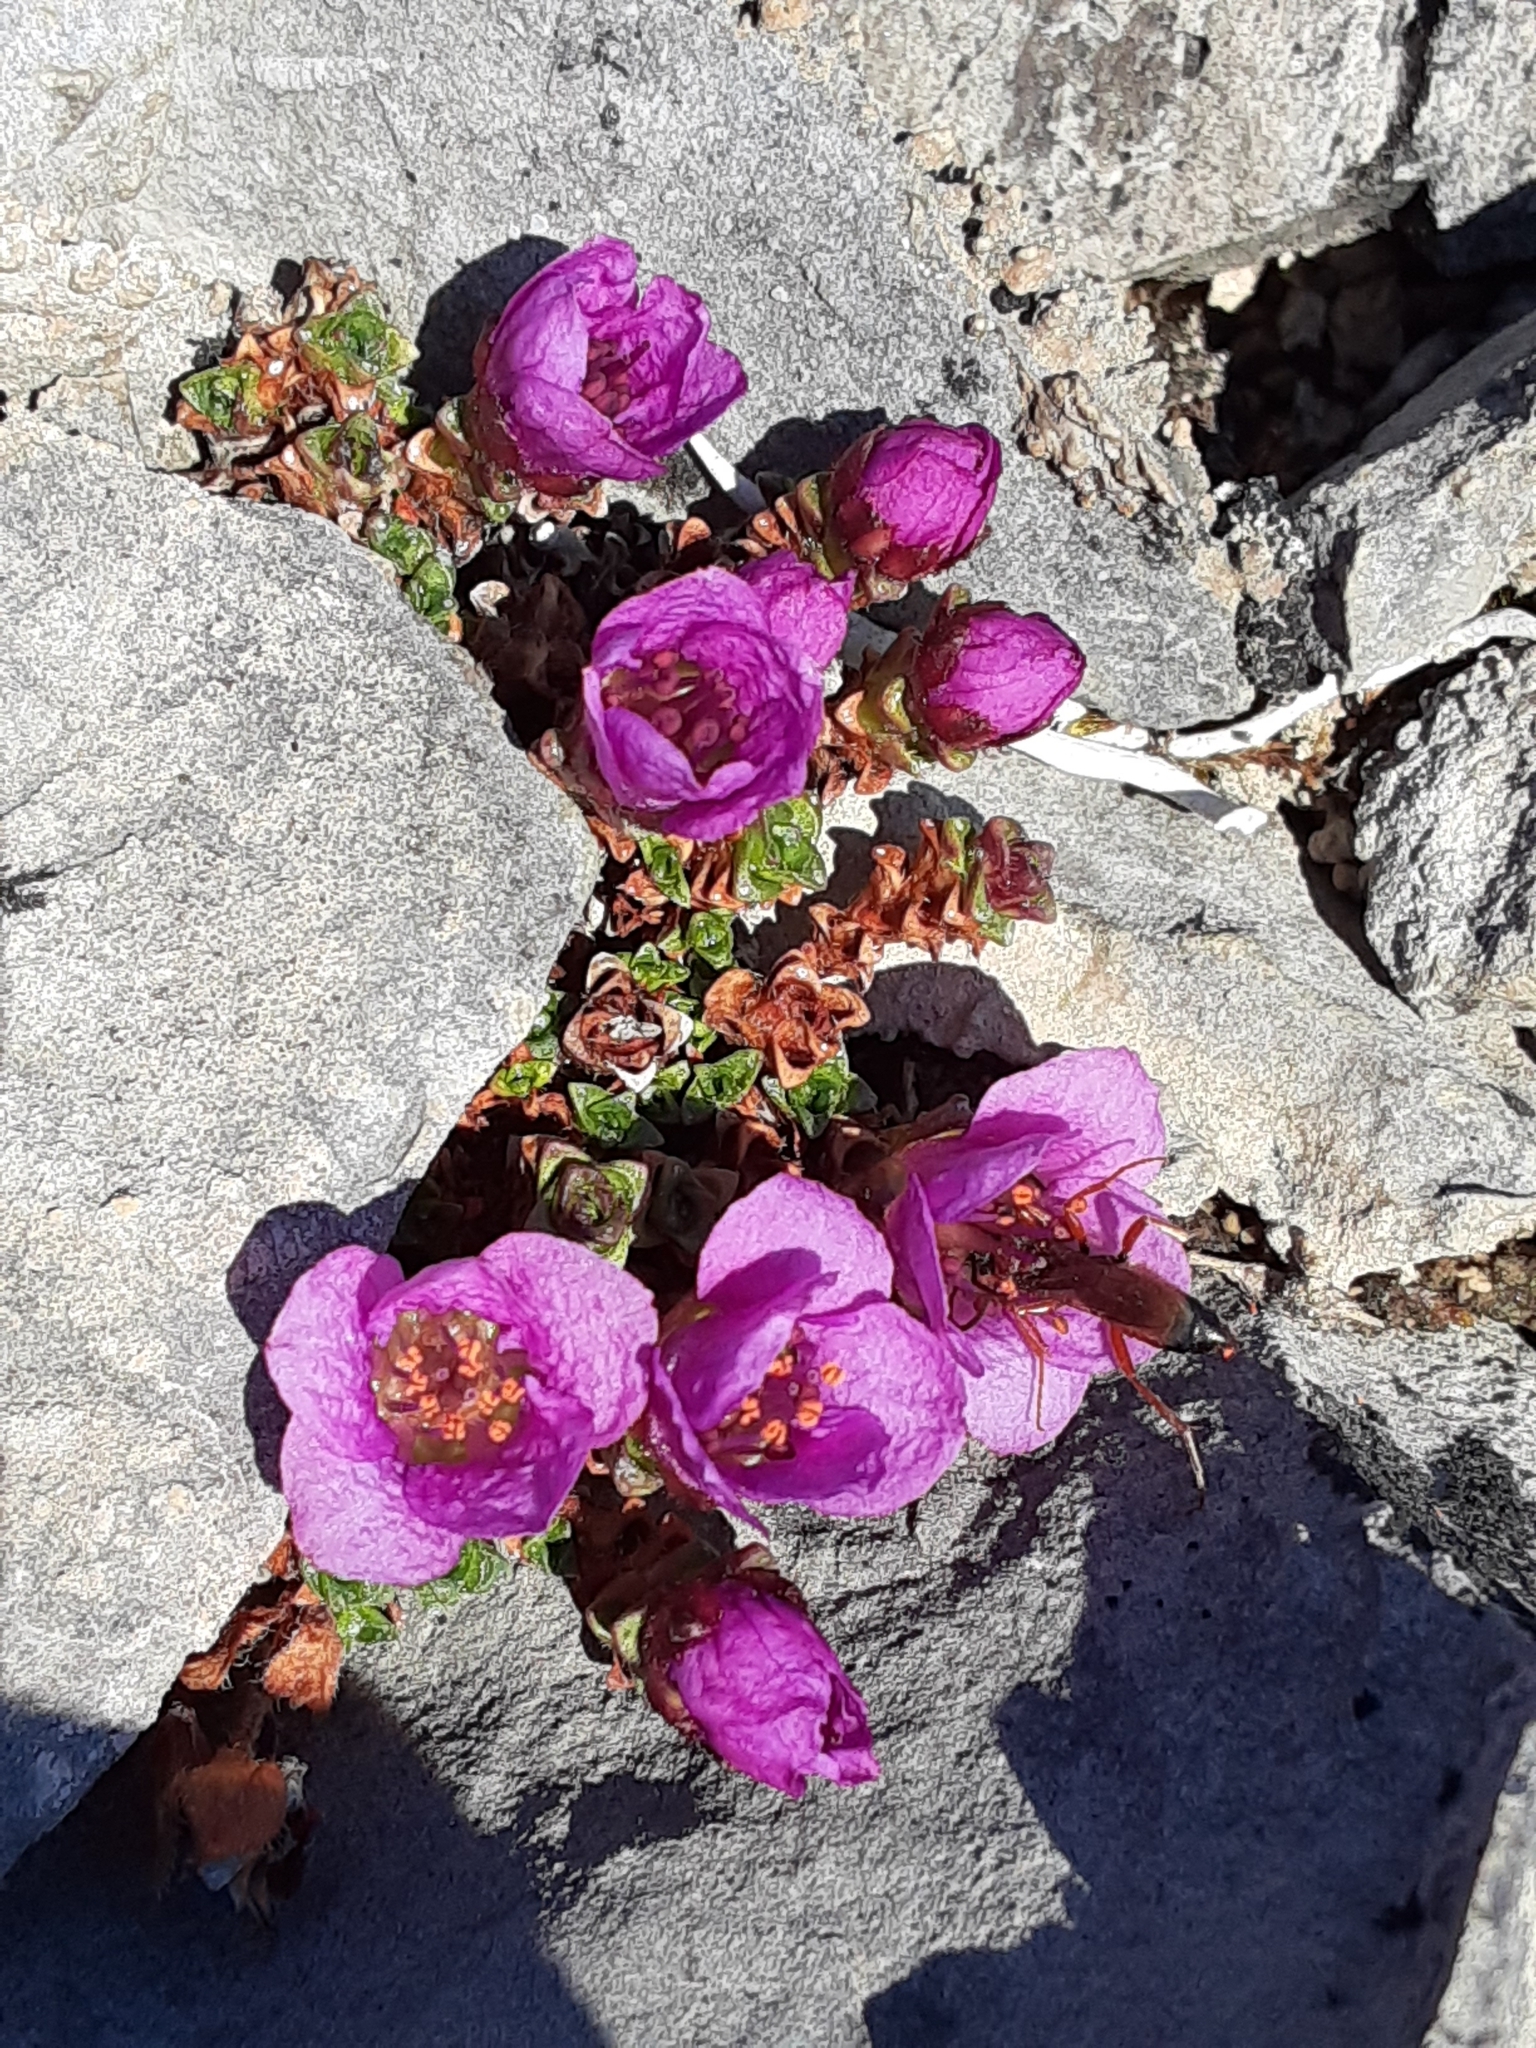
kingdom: Plantae
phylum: Tracheophyta
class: Magnoliopsida
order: Saxifragales
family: Saxifragaceae
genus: Saxifraga
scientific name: Saxifraga oppositifolia
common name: Purple saxifrage
